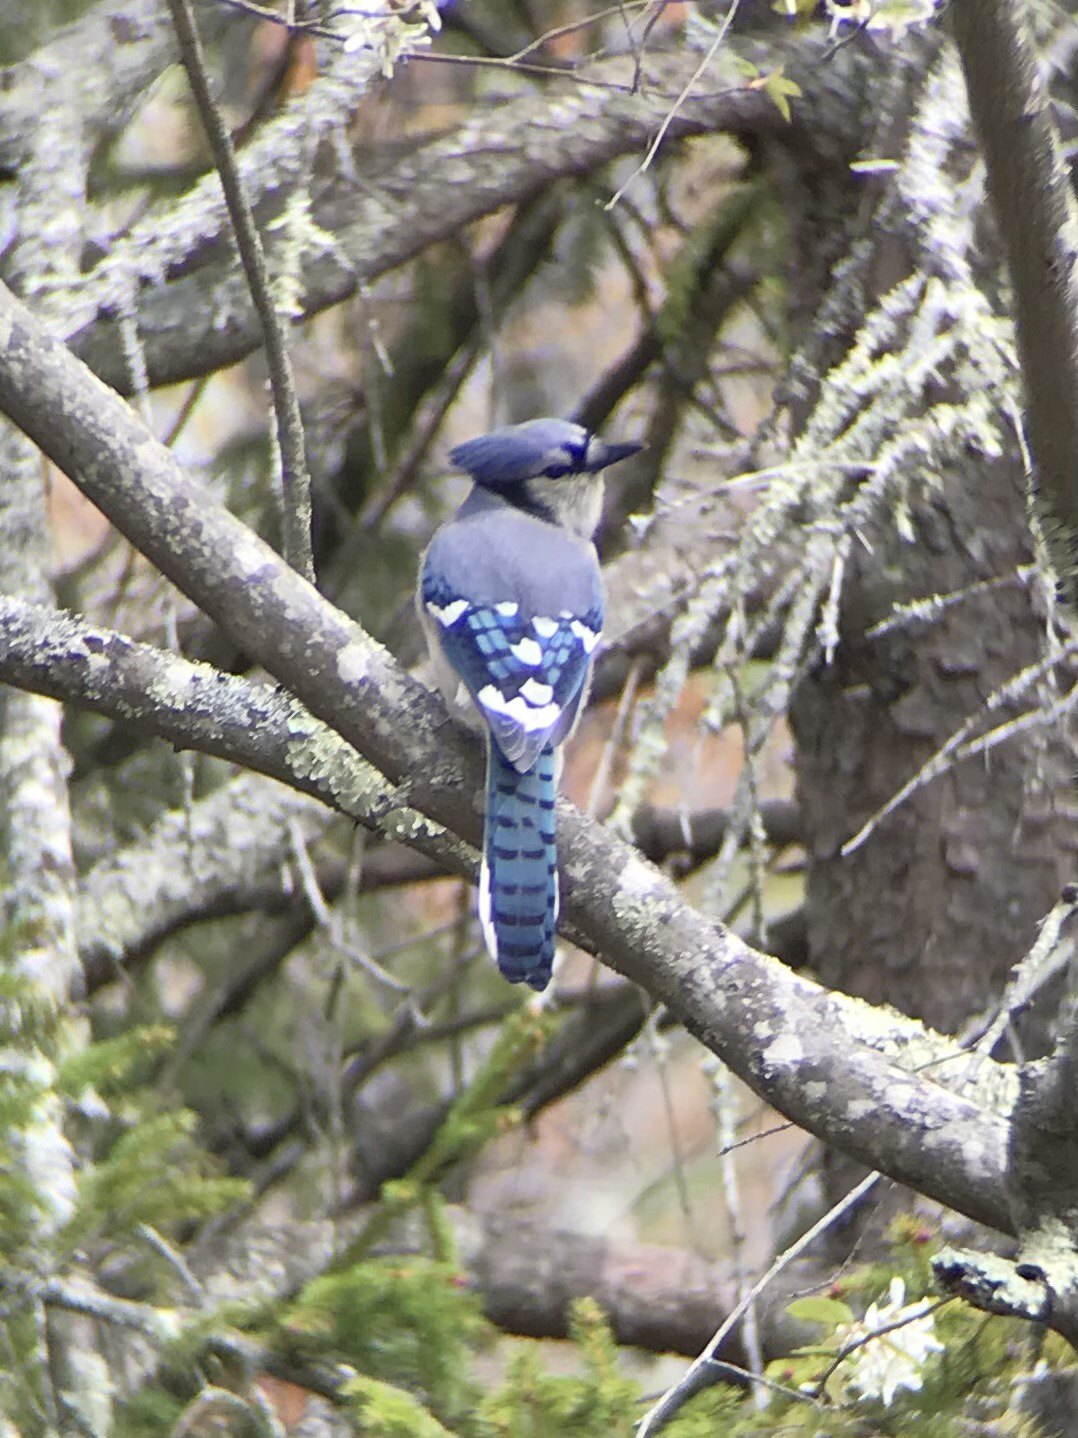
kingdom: Animalia
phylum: Chordata
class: Aves
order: Passeriformes
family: Corvidae
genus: Cyanocitta
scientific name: Cyanocitta cristata
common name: Blue jay
